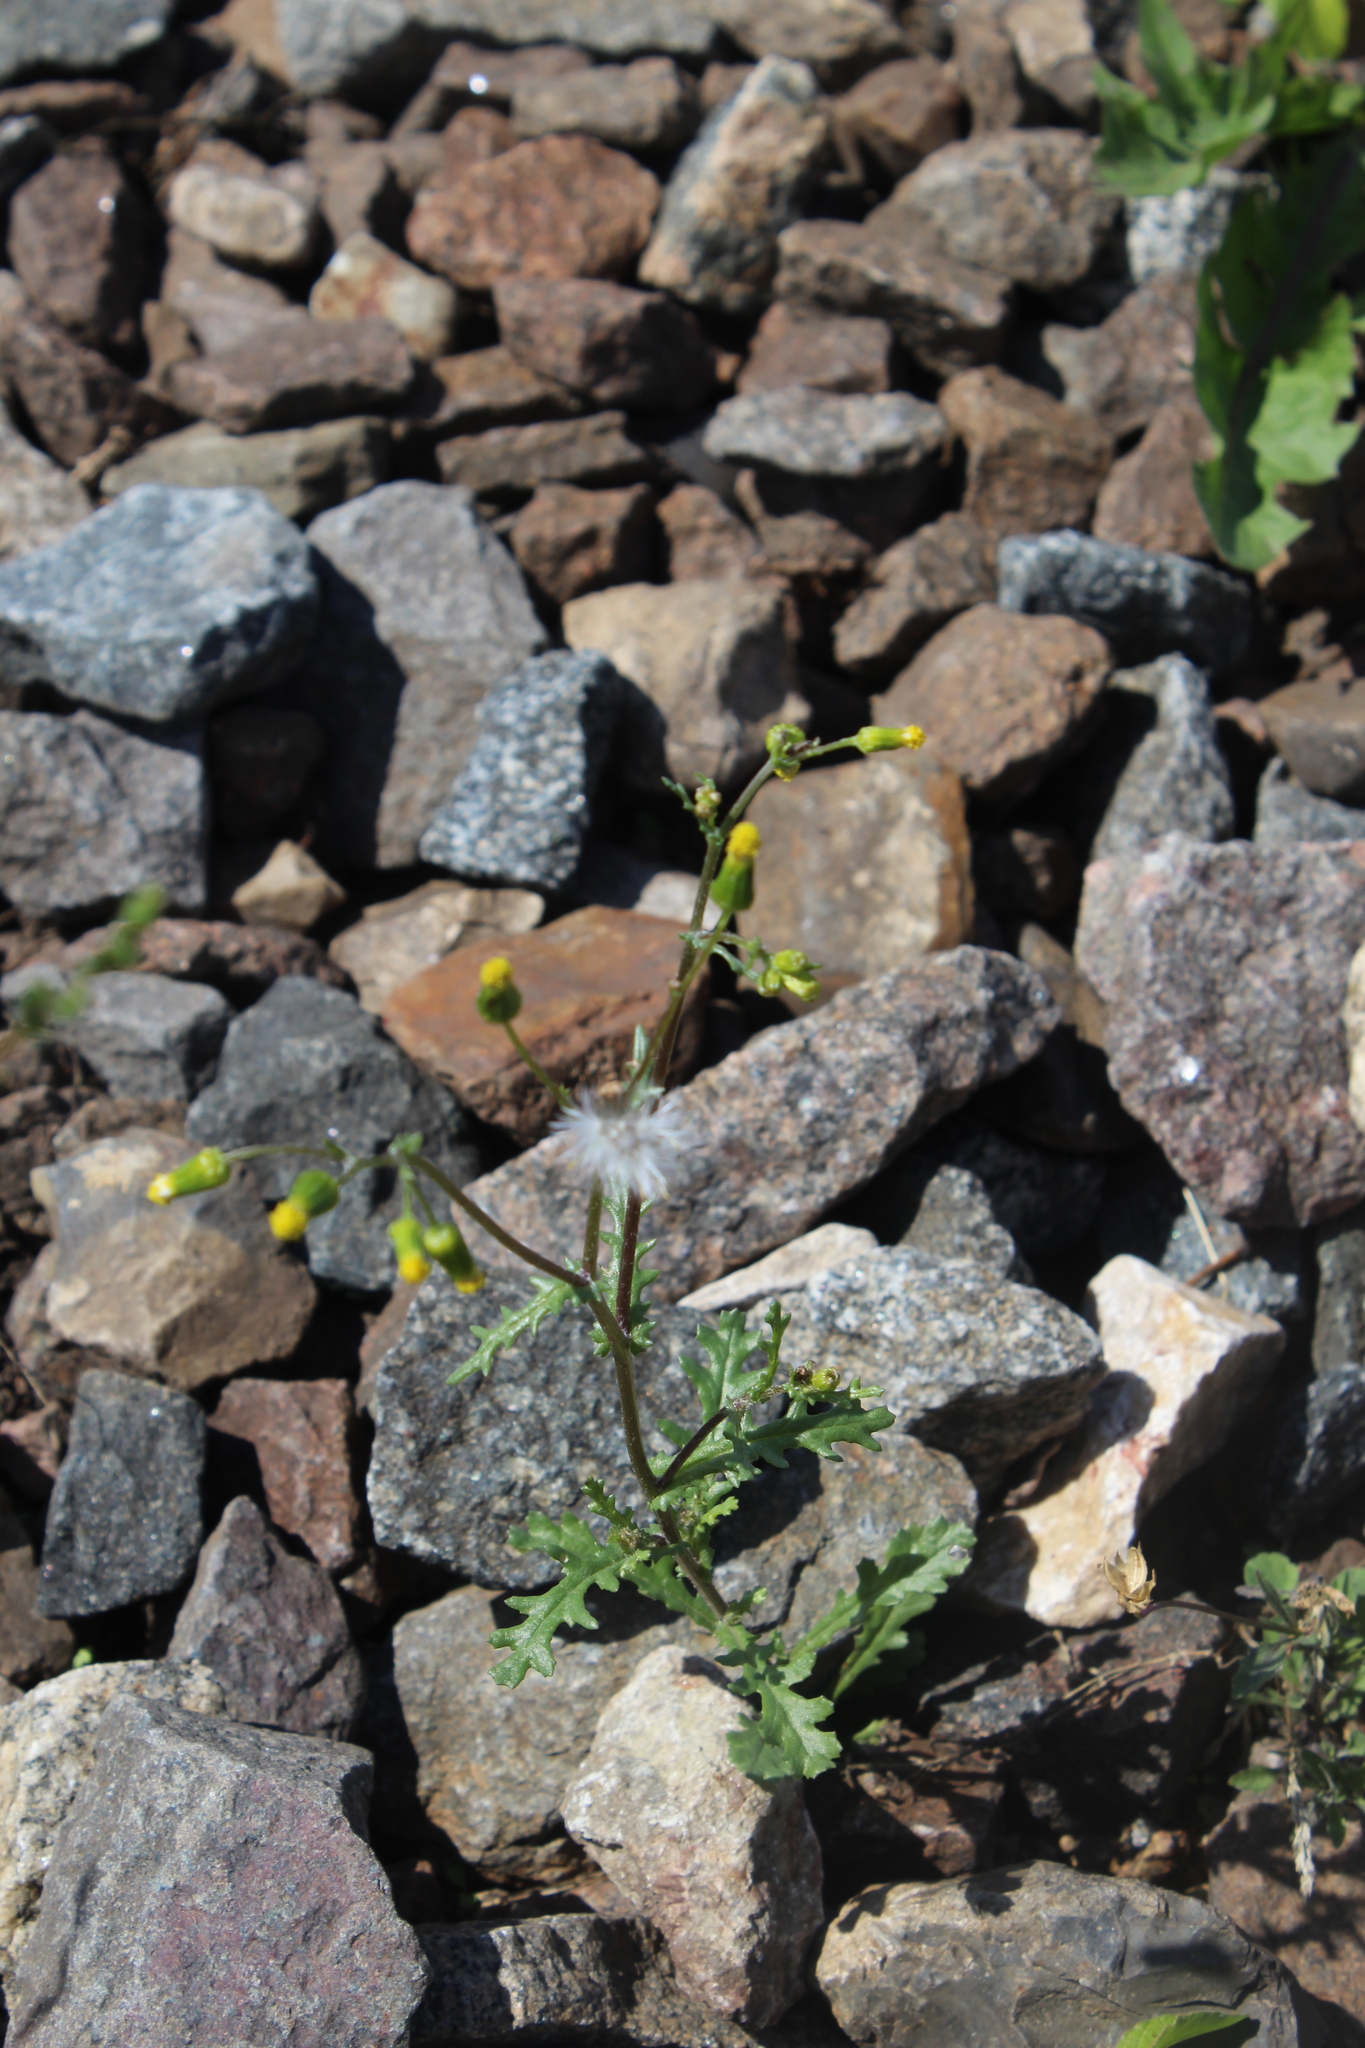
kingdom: Plantae
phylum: Tracheophyta
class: Magnoliopsida
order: Asterales
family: Asteraceae
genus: Senecio
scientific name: Senecio vulgaris
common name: Old-man-in-the-spring
